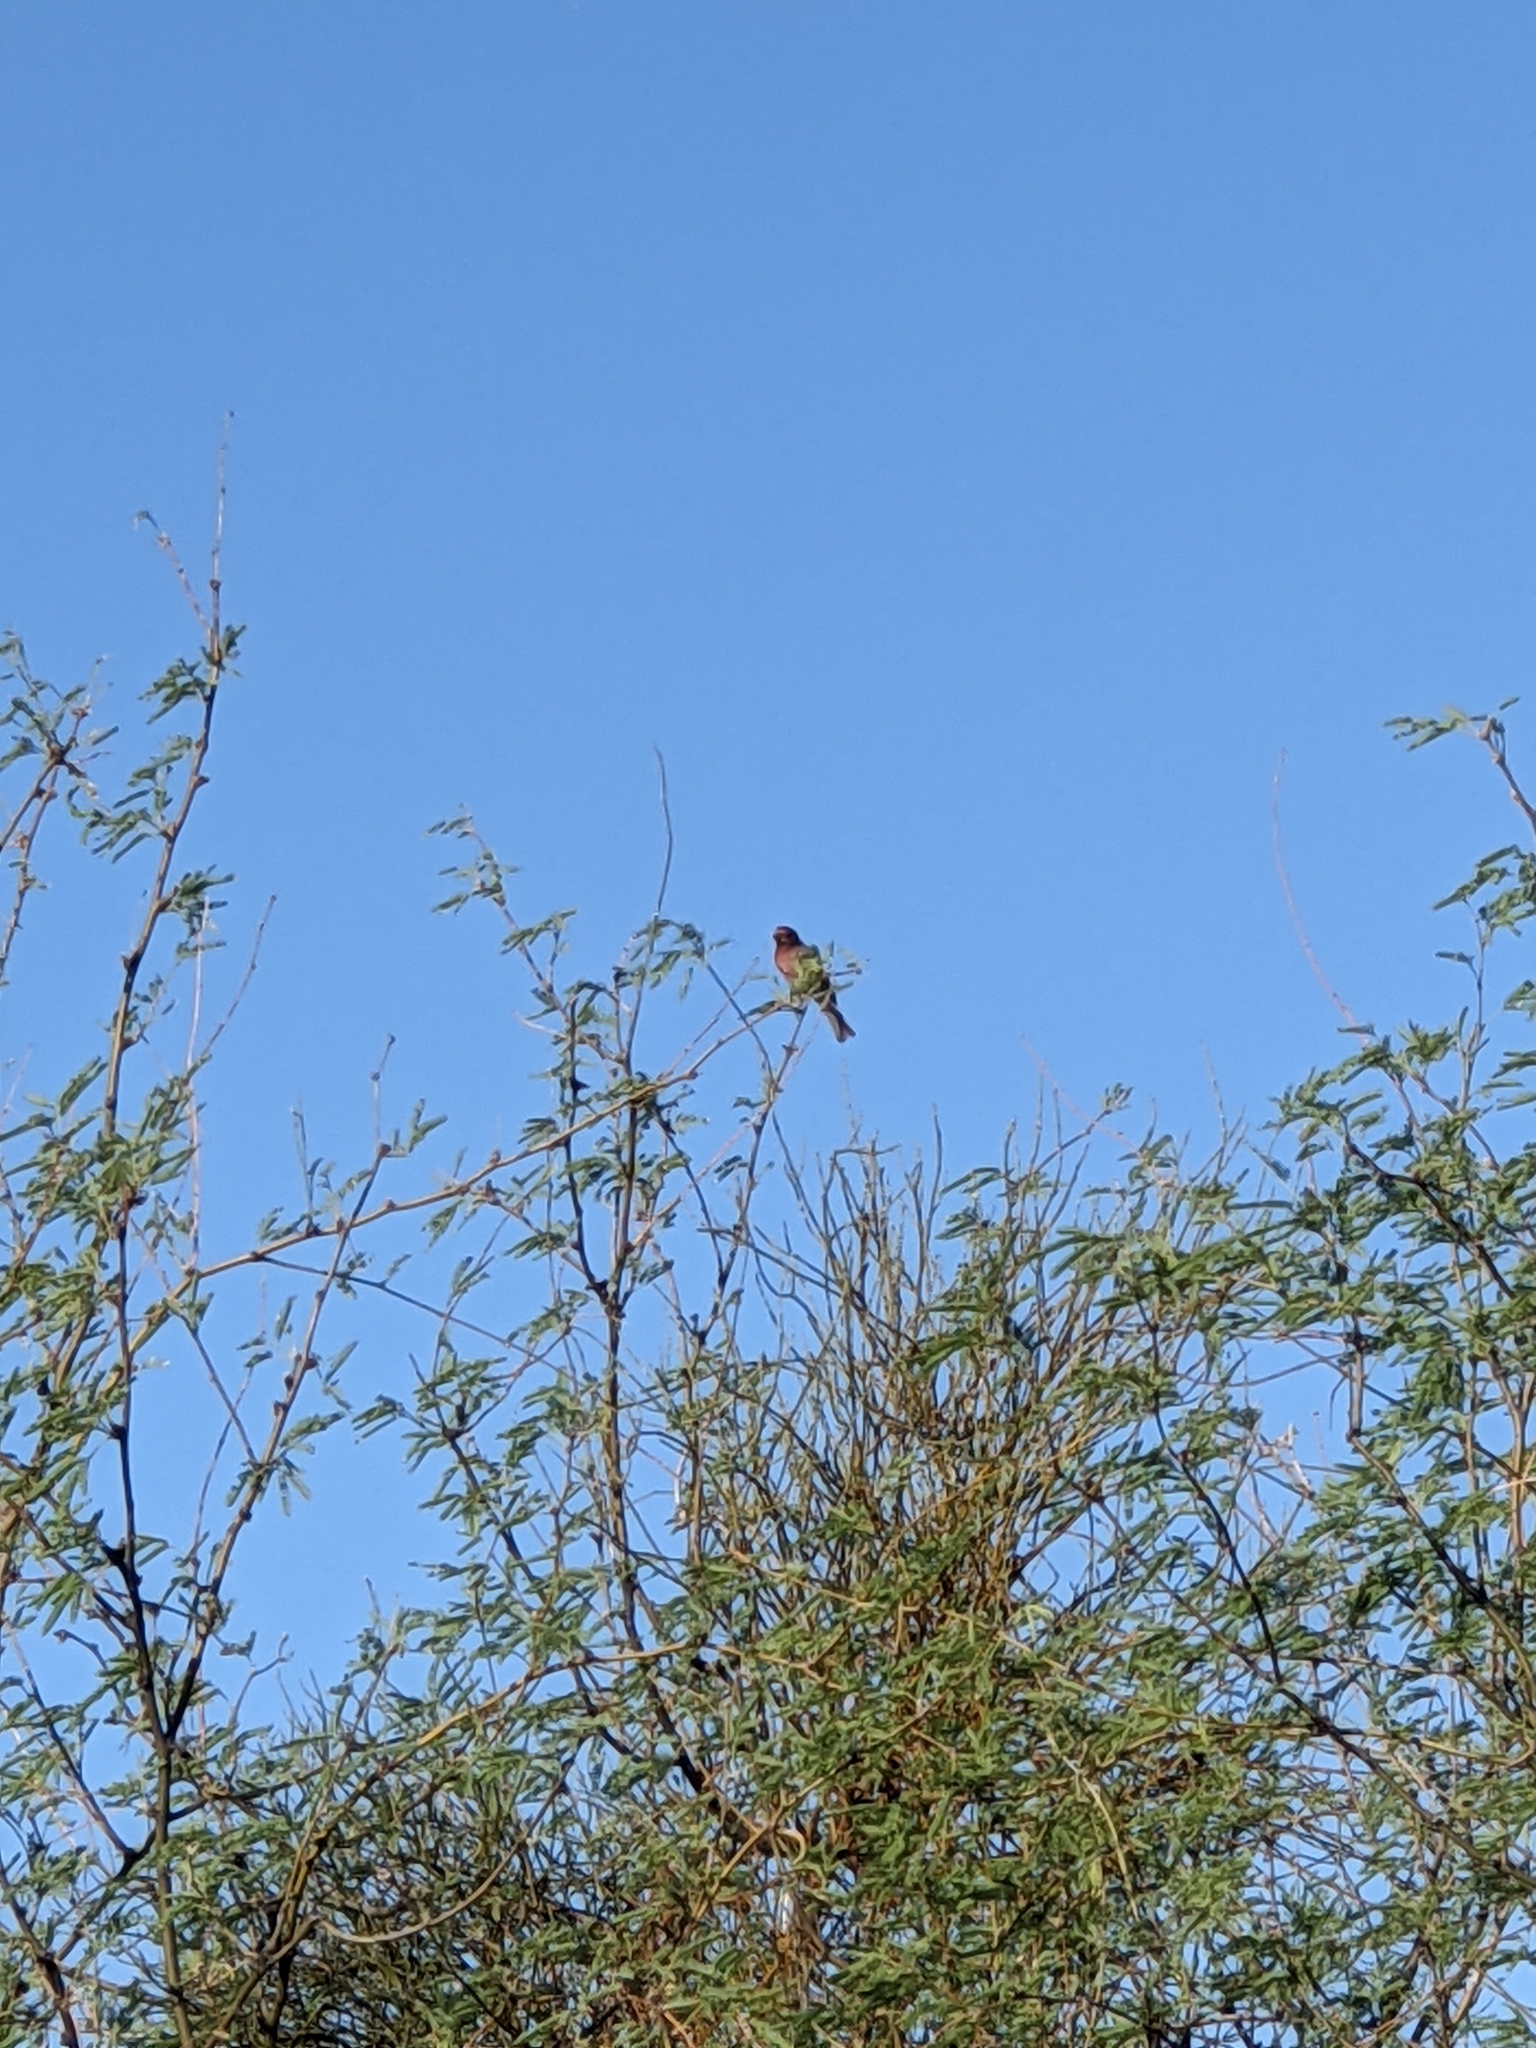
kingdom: Animalia
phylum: Chordata
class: Aves
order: Passeriformes
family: Fringillidae
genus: Haemorhous
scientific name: Haemorhous mexicanus
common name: House finch
